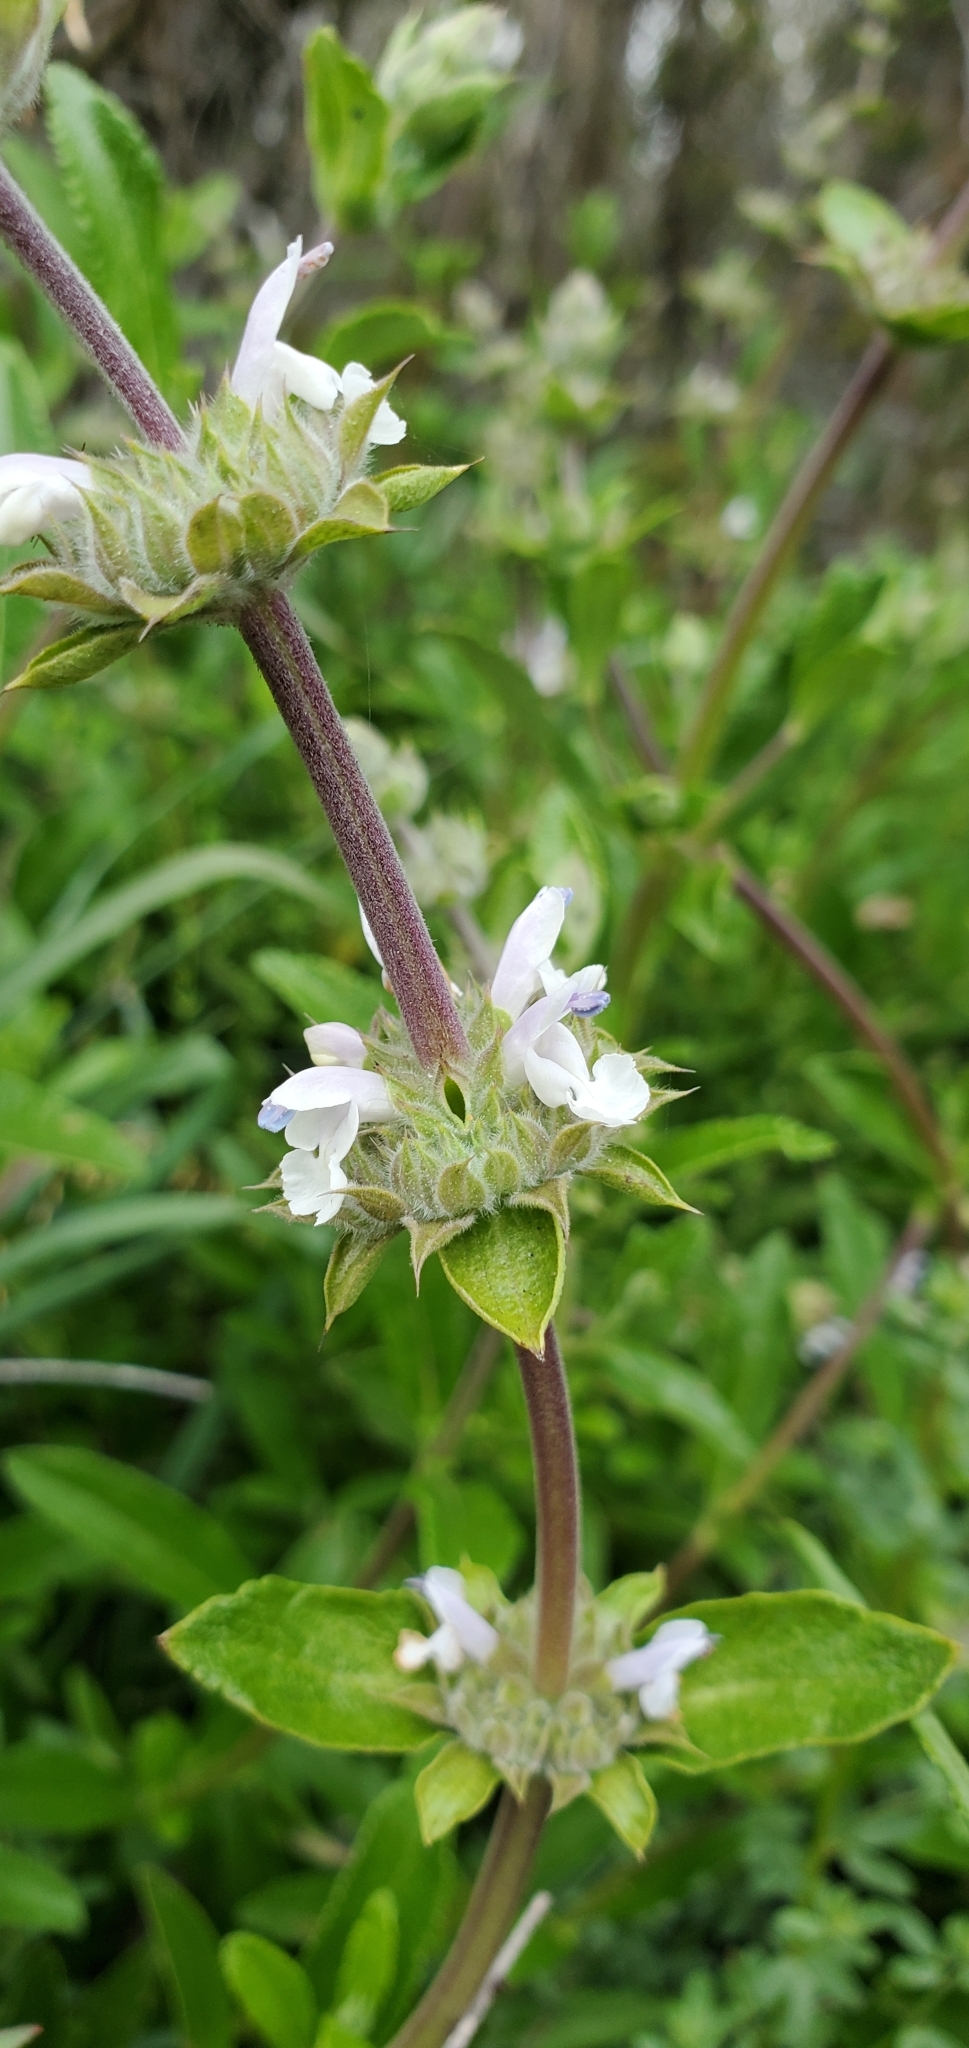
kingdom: Plantae
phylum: Tracheophyta
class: Magnoliopsida
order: Lamiales
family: Lamiaceae
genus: Salvia
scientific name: Salvia mellifera
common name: Black sage
